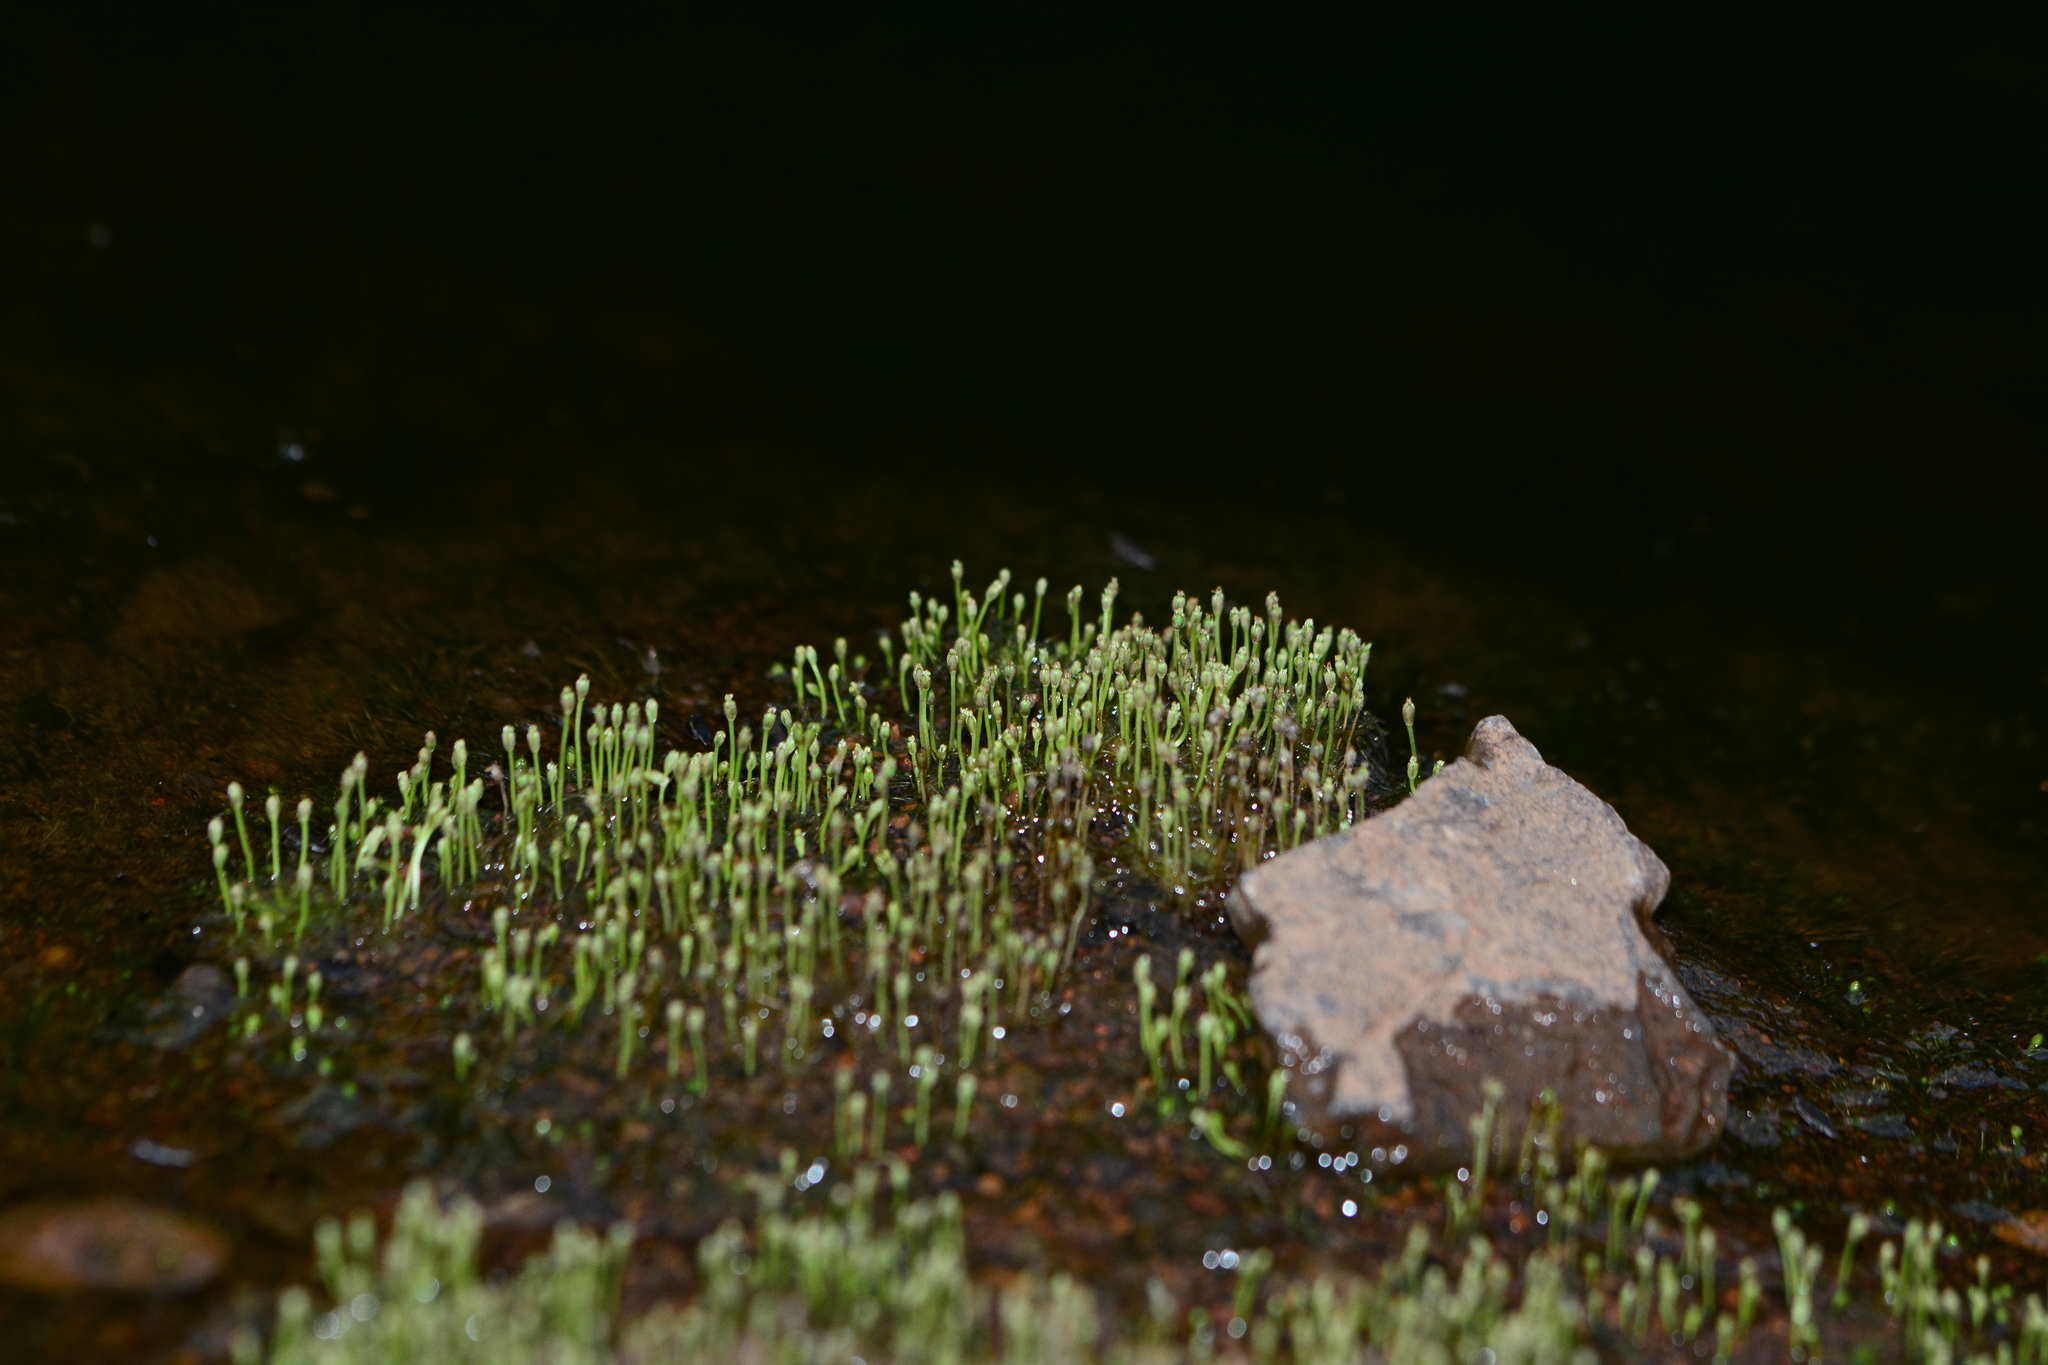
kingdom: Plantae
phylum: Tracheophyta
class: Magnoliopsida
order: Malpighiales
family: Podostemaceae
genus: Dalzellia
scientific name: Dalzellia ceylanica
